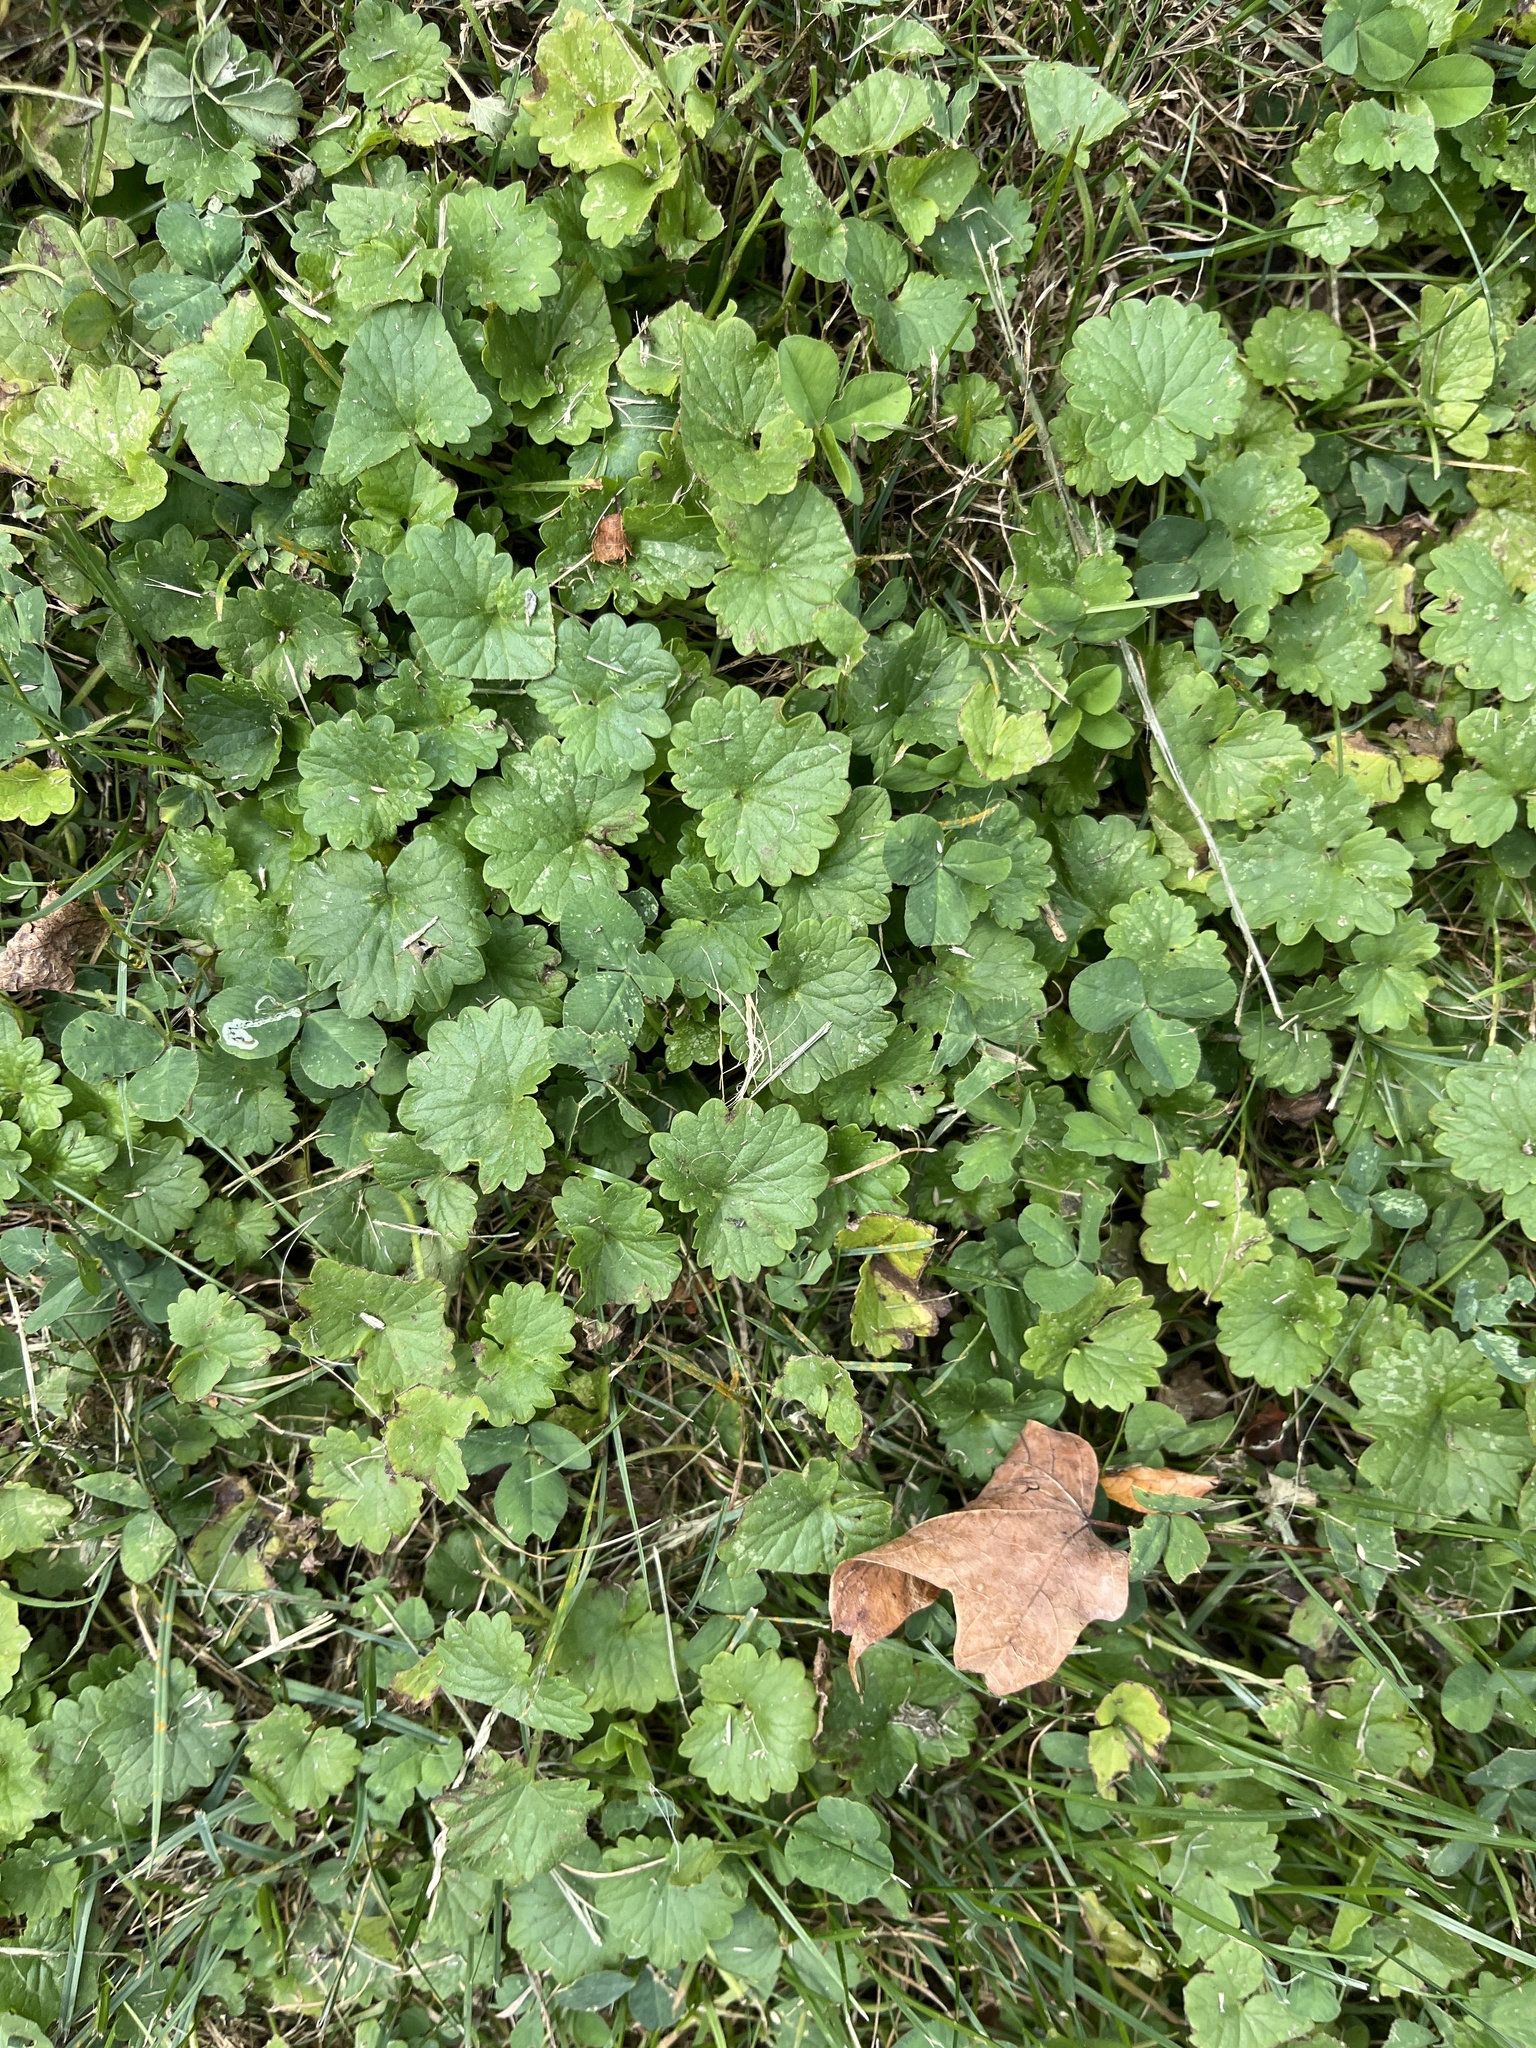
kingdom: Plantae
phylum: Tracheophyta
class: Magnoliopsida
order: Lamiales
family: Lamiaceae
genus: Glechoma
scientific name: Glechoma hederacea
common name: Ground ivy
